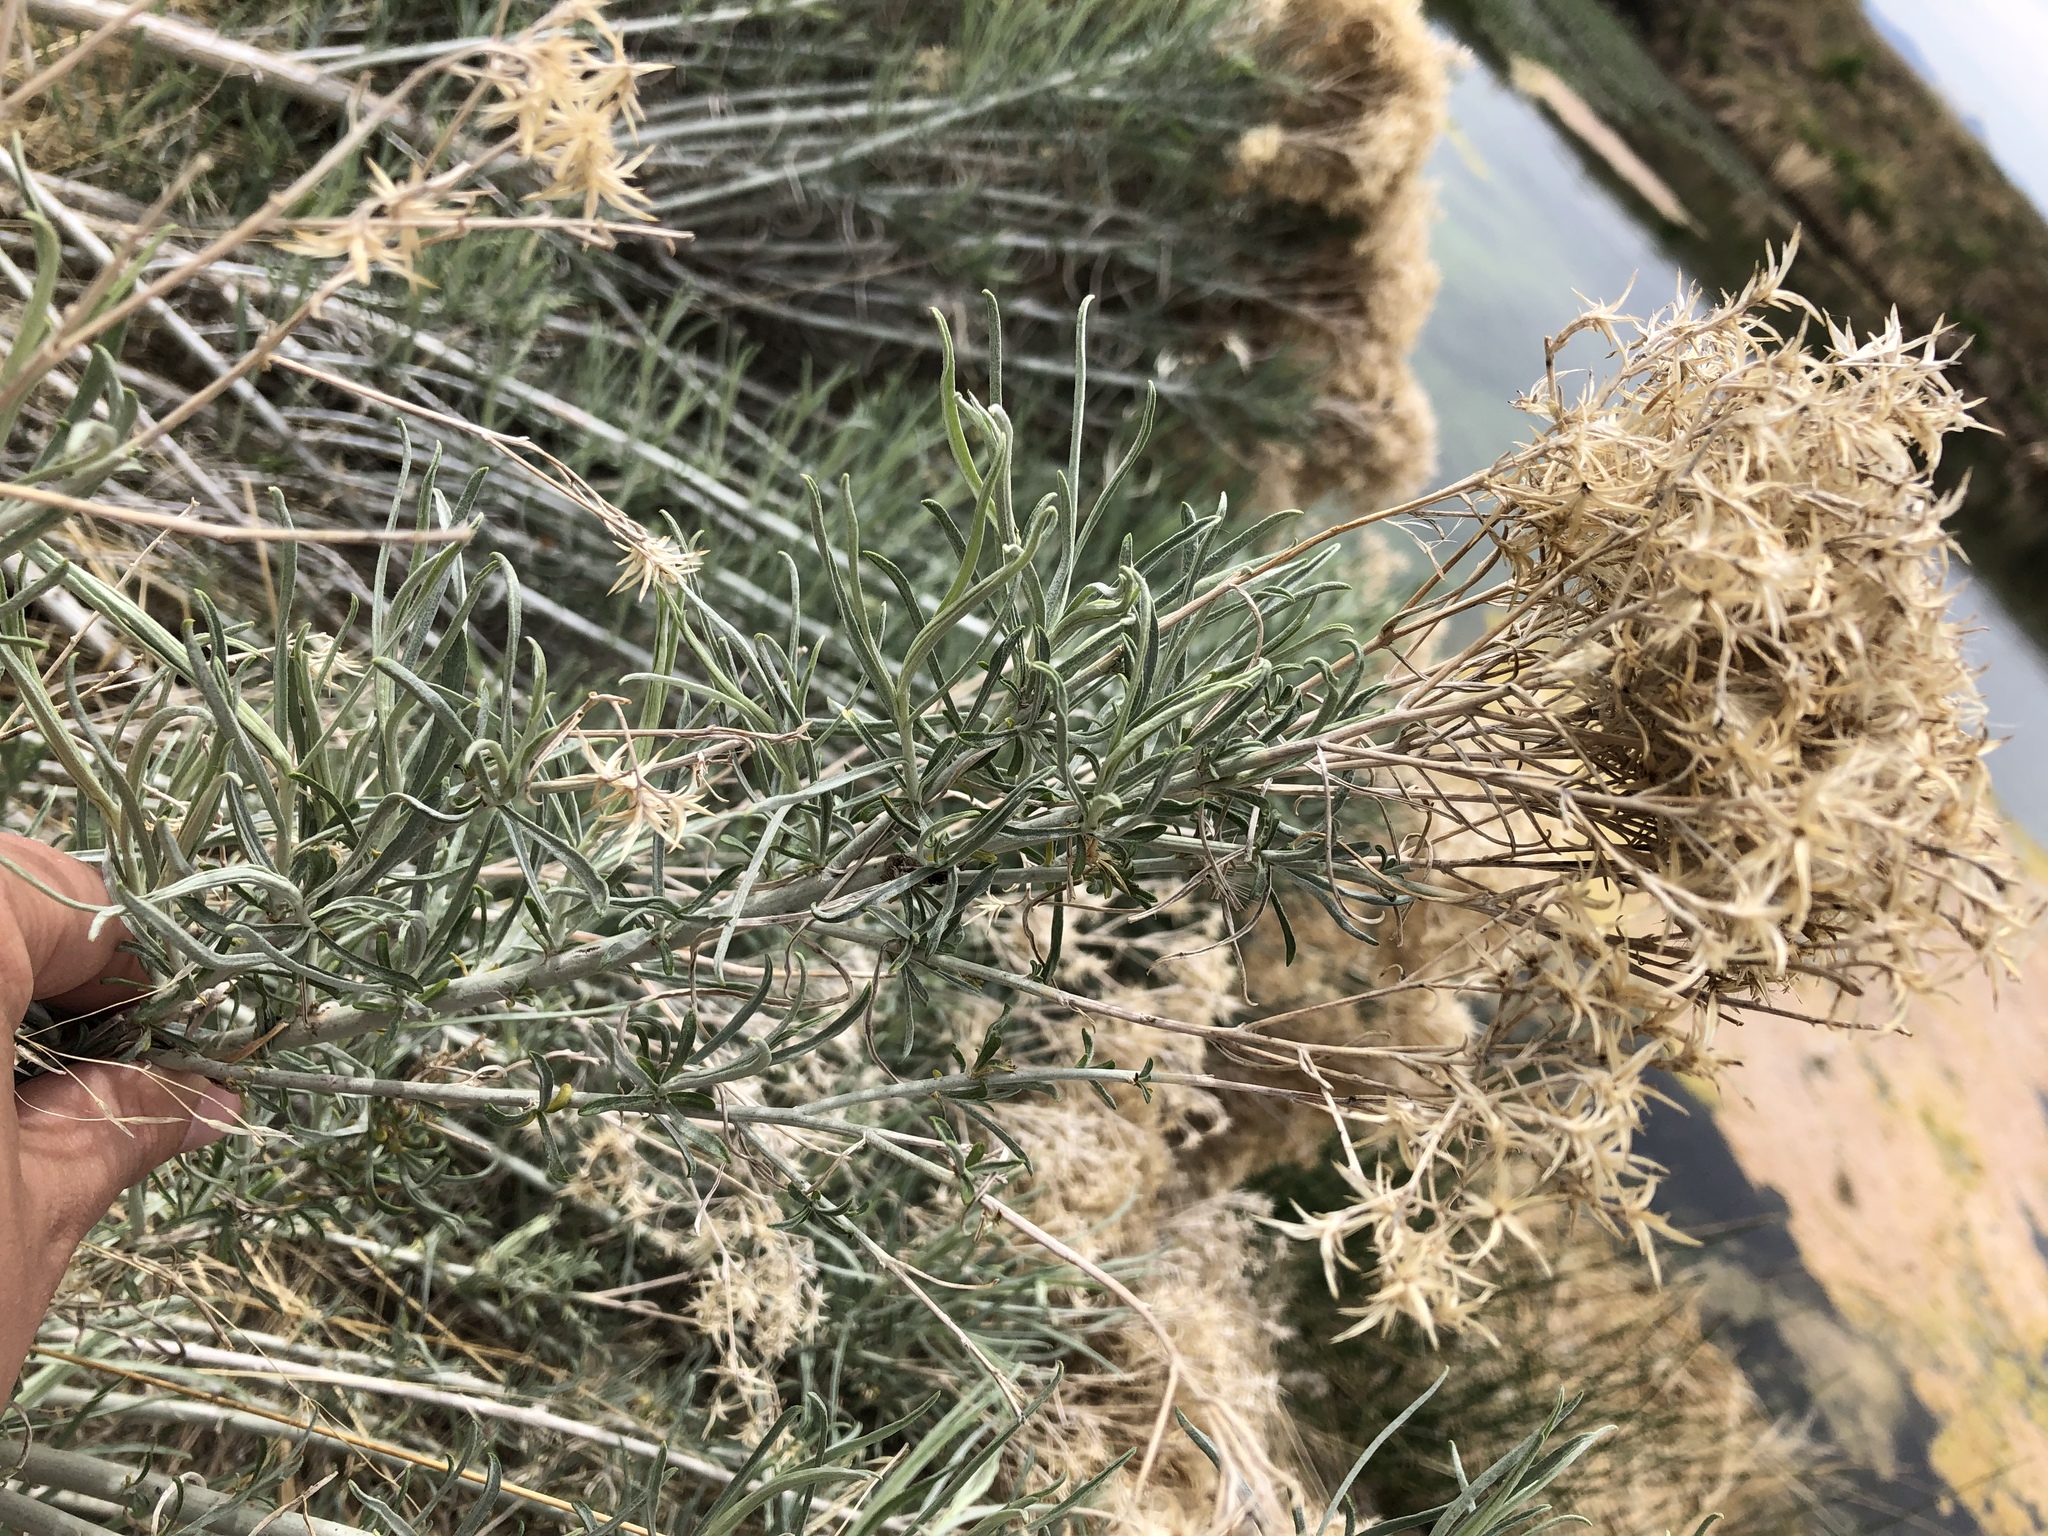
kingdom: Plantae
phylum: Tracheophyta
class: Magnoliopsida
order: Asterales
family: Asteraceae
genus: Ericameria
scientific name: Ericameria nauseosa
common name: Rubber rabbitbrush
